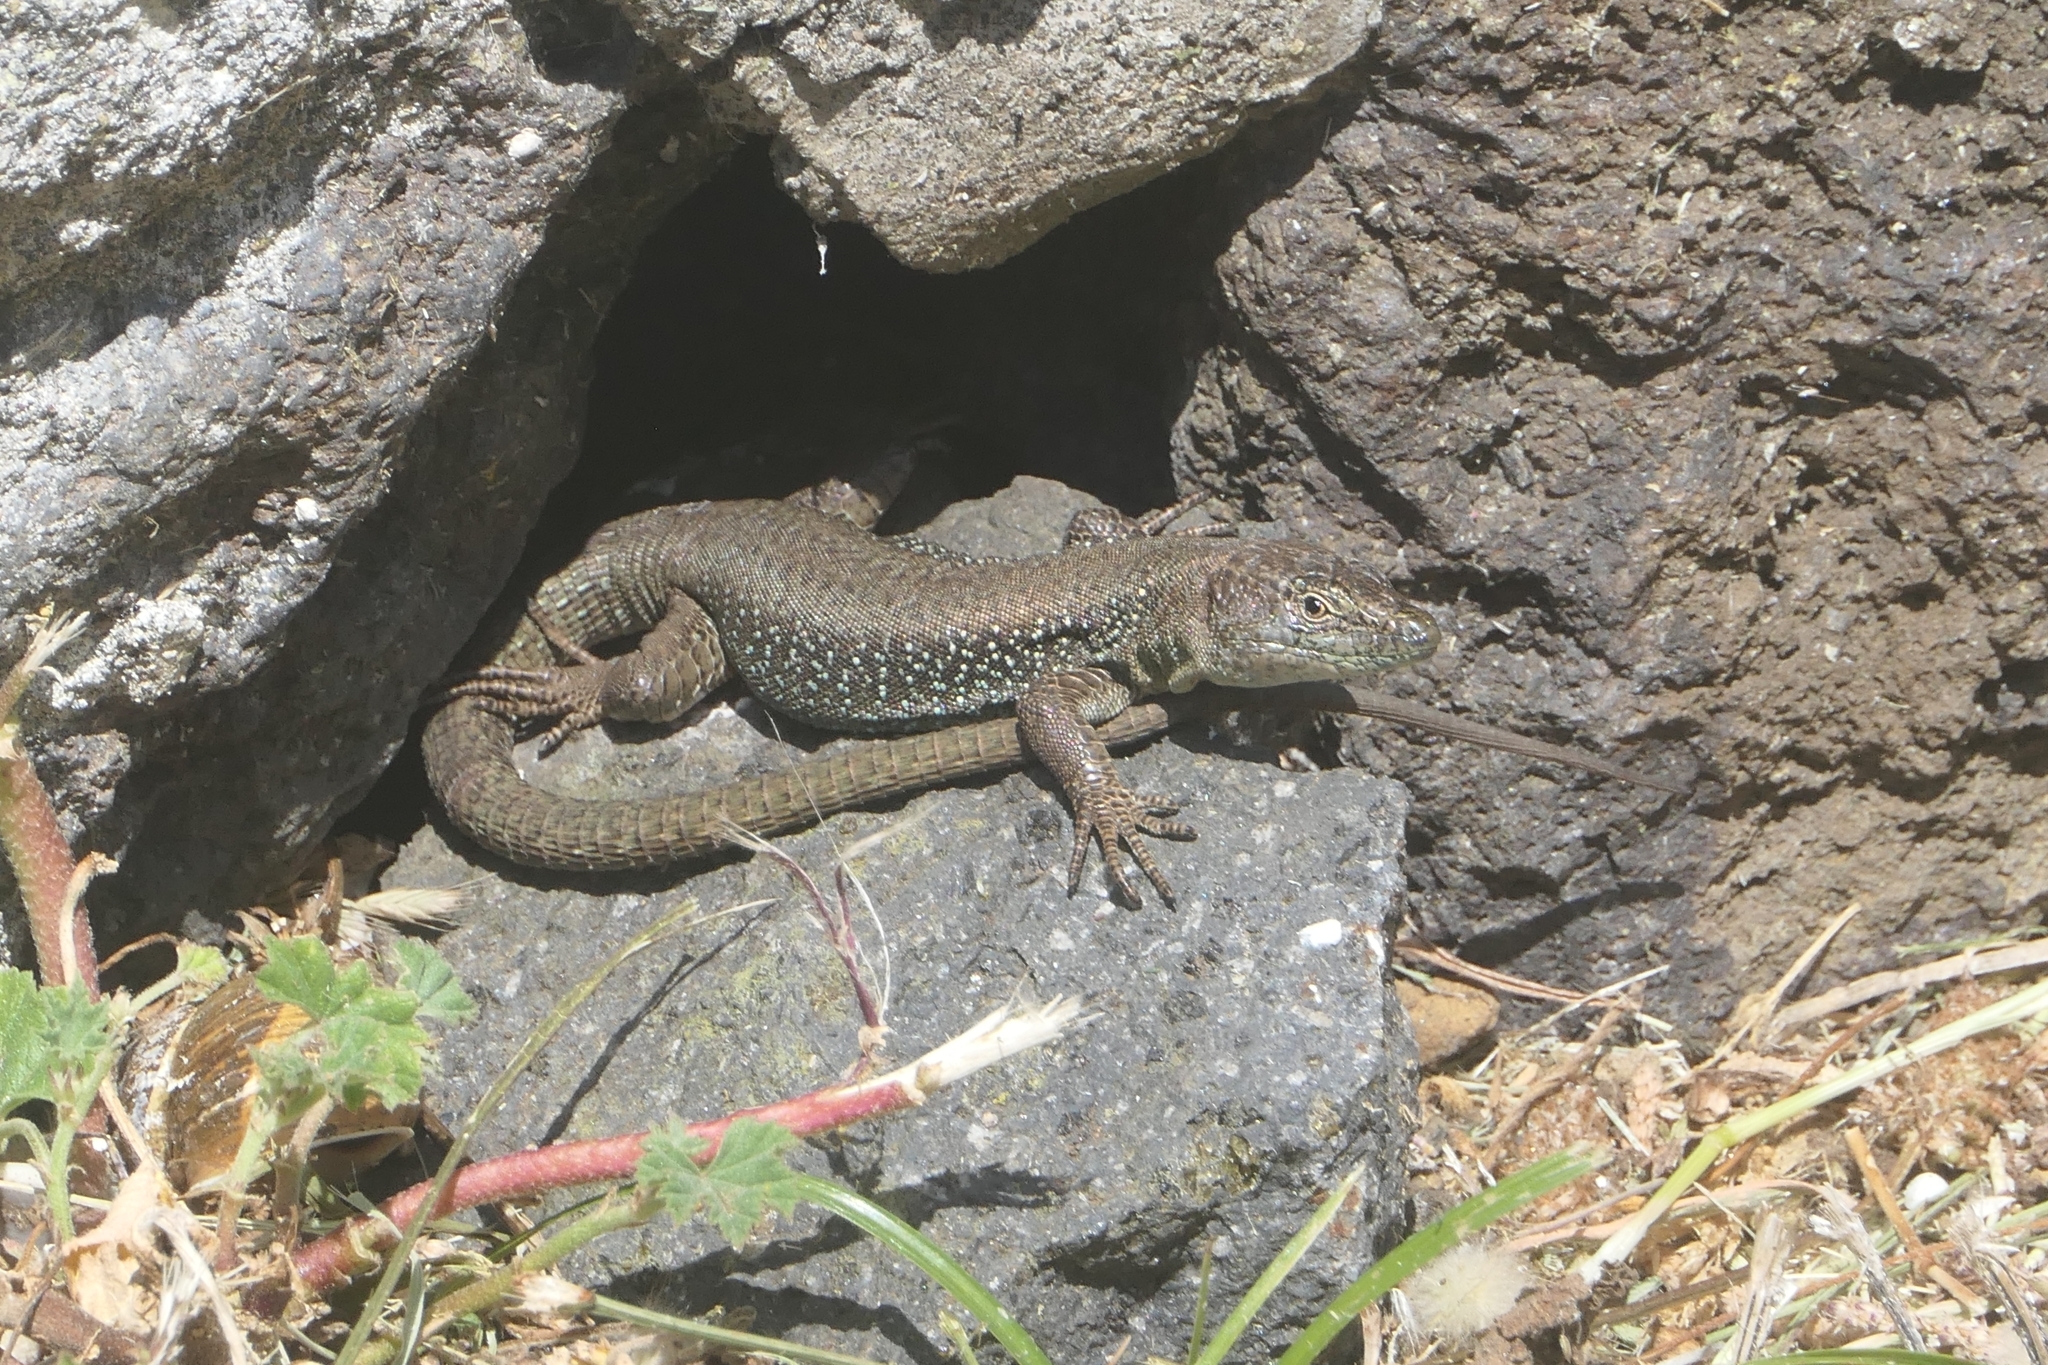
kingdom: Animalia
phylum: Chordata
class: Squamata
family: Lacertidae
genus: Teira
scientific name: Teira dugesii
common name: Madeira lizard
